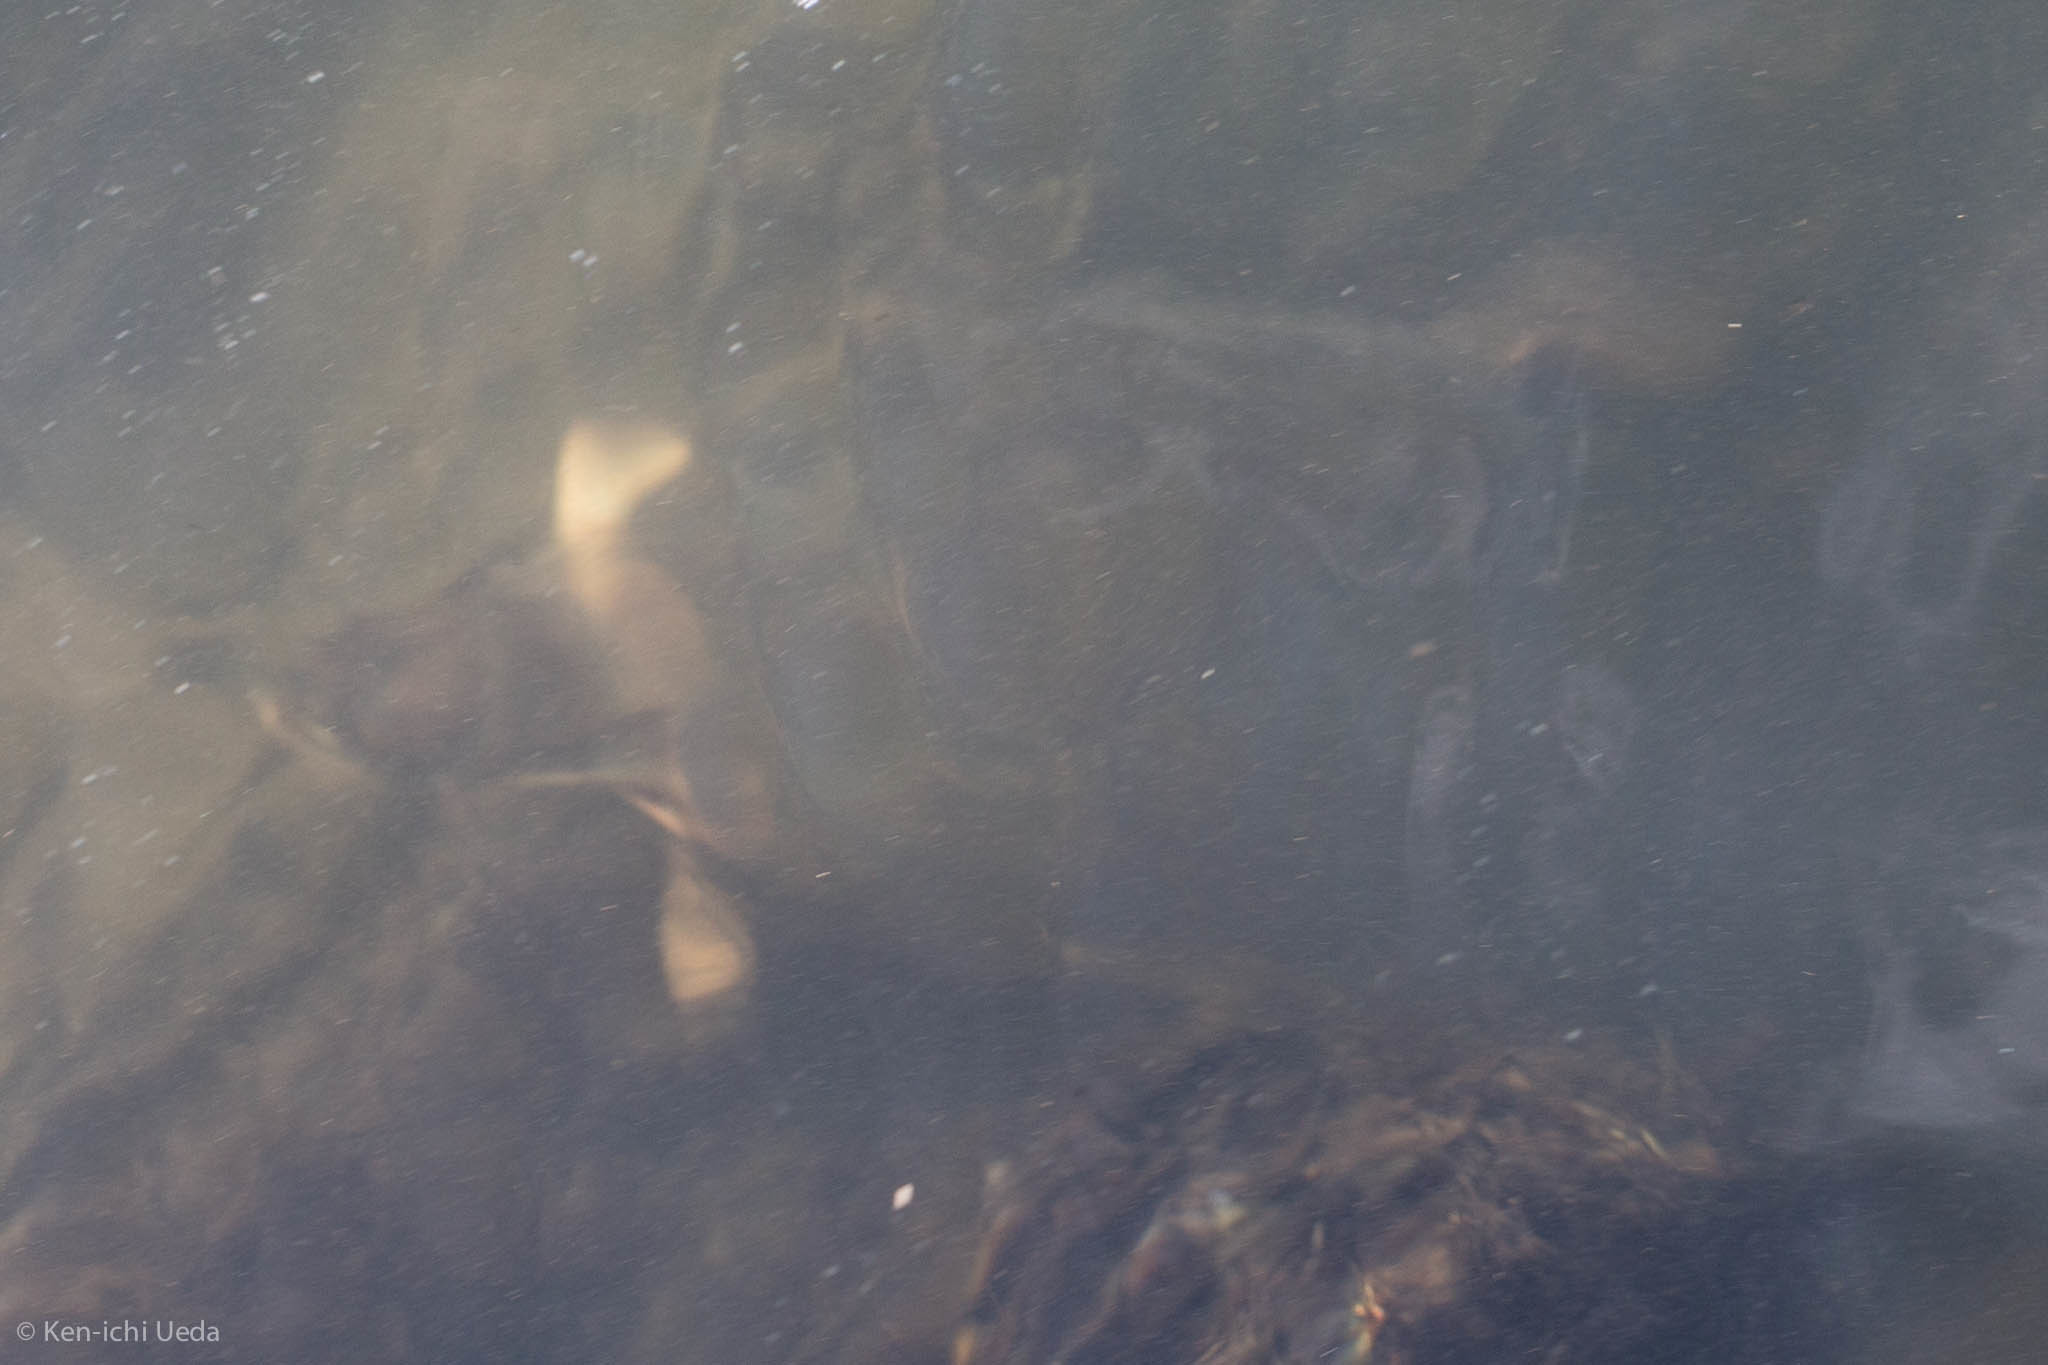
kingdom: Animalia
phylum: Chordata
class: Testudines
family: Emydidae
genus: Actinemys
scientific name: Actinemys marmorata
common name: Western pond turtle
